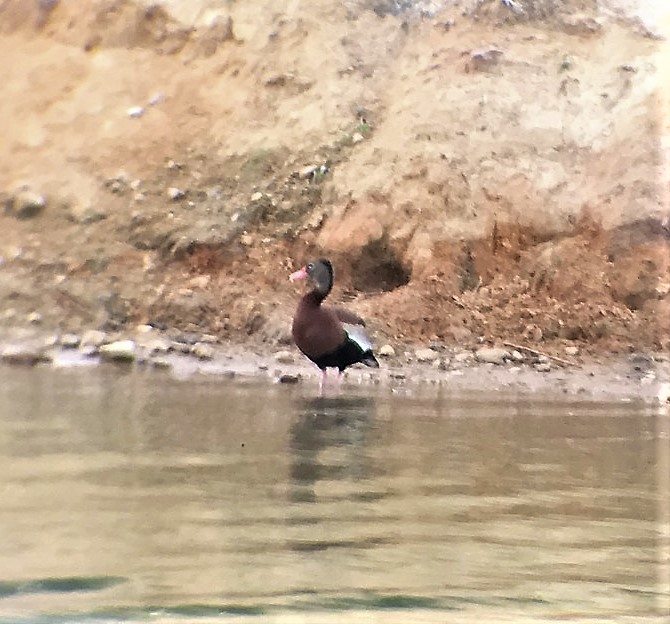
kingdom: Animalia
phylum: Chordata
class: Aves
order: Anseriformes
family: Anatidae
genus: Dendrocygna
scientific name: Dendrocygna autumnalis
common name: Black-bellied whistling duck
